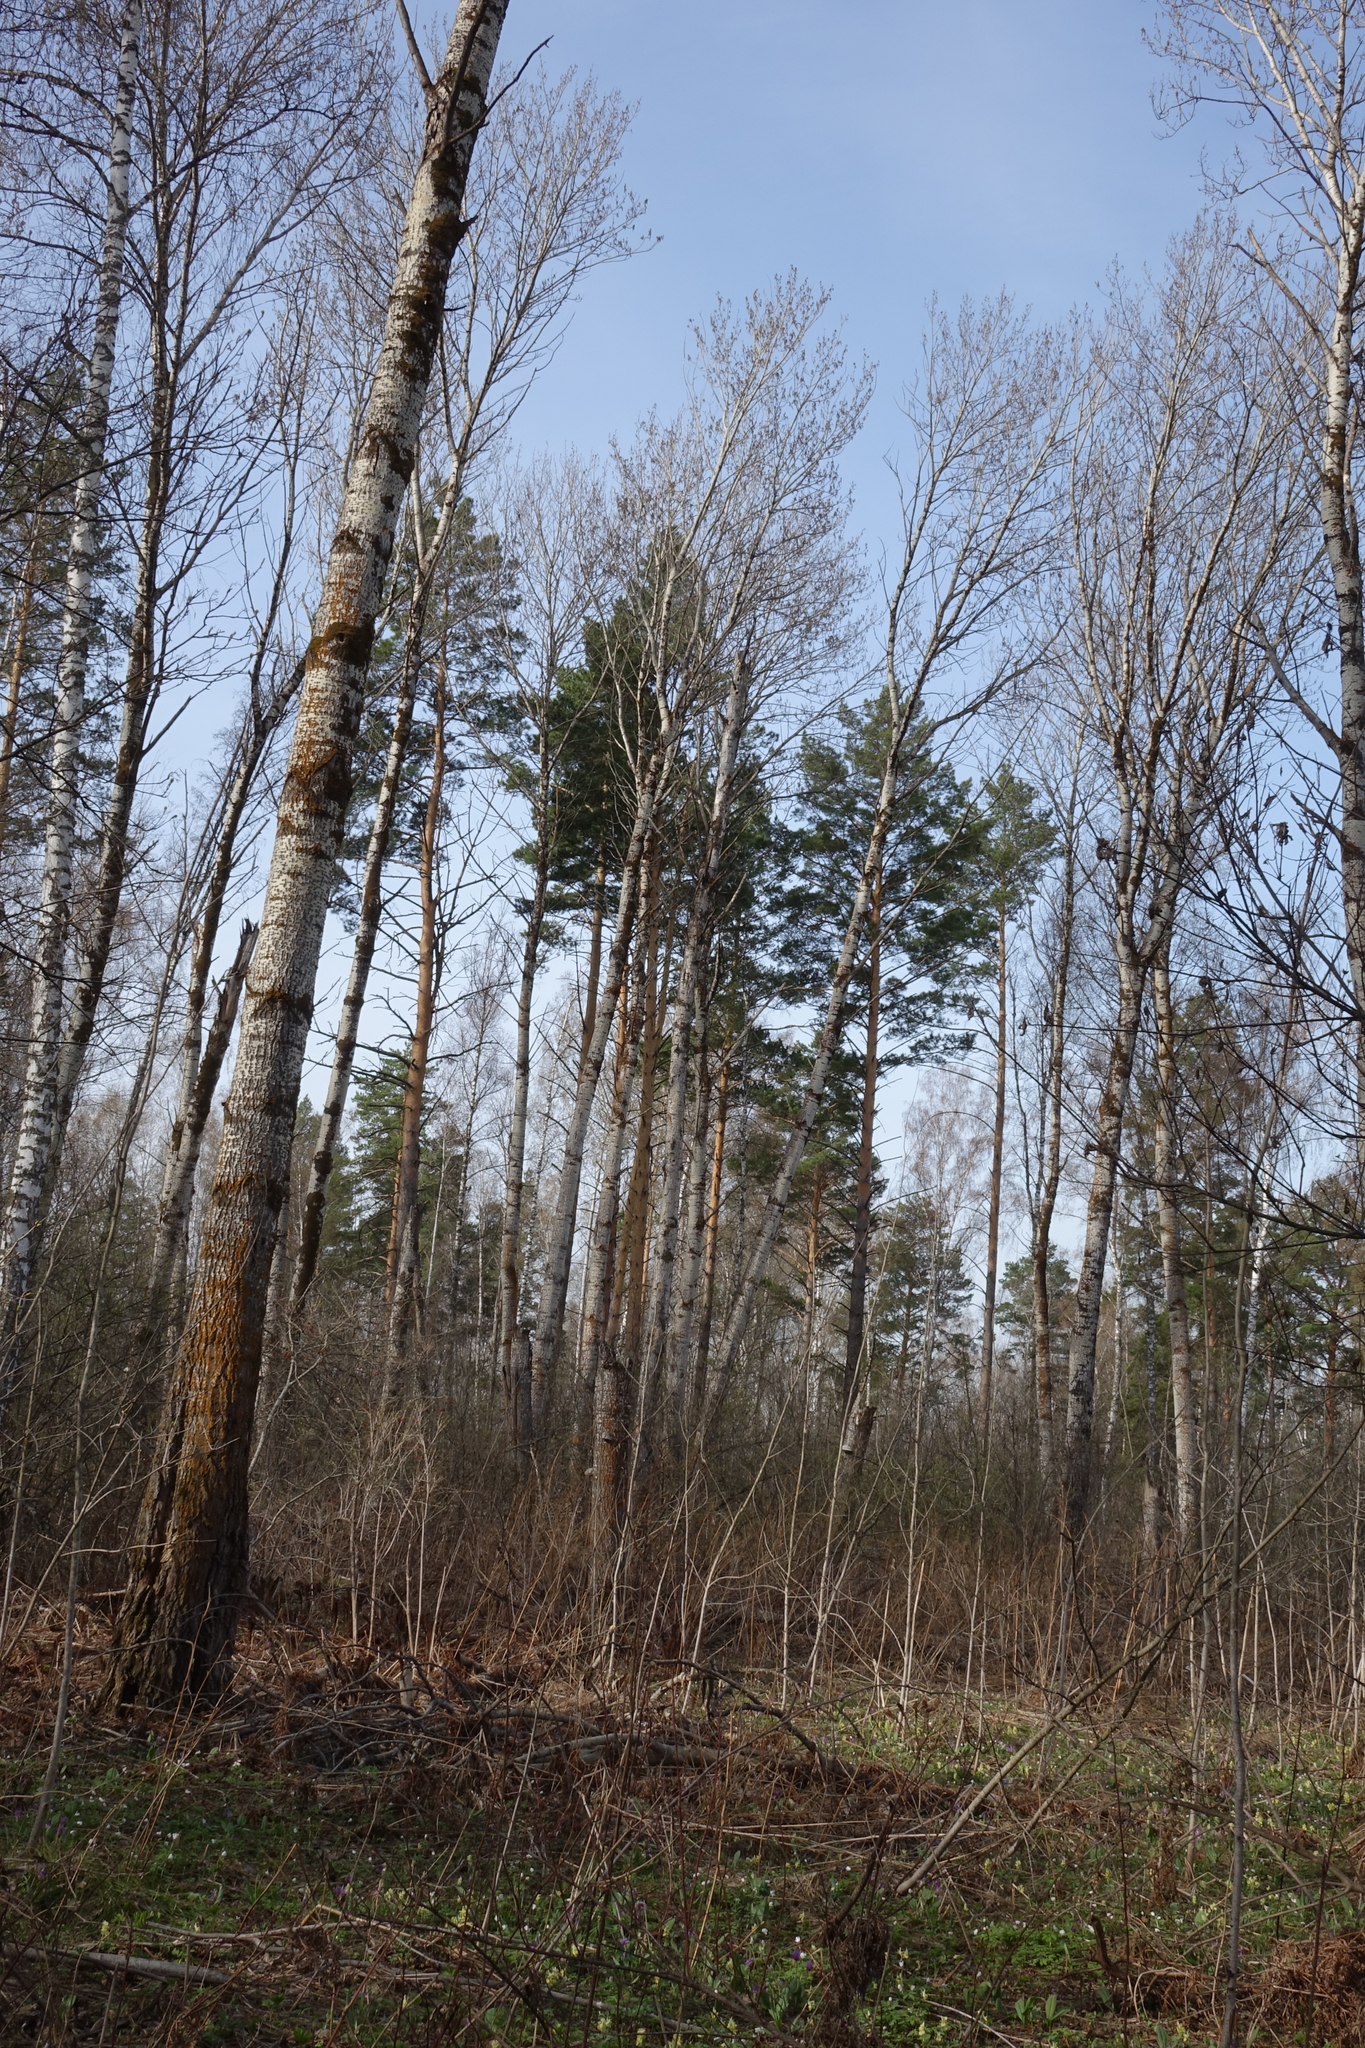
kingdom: Plantae
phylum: Tracheophyta
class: Magnoliopsida
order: Malpighiales
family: Salicaceae
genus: Populus
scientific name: Populus tremula
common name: European aspen
